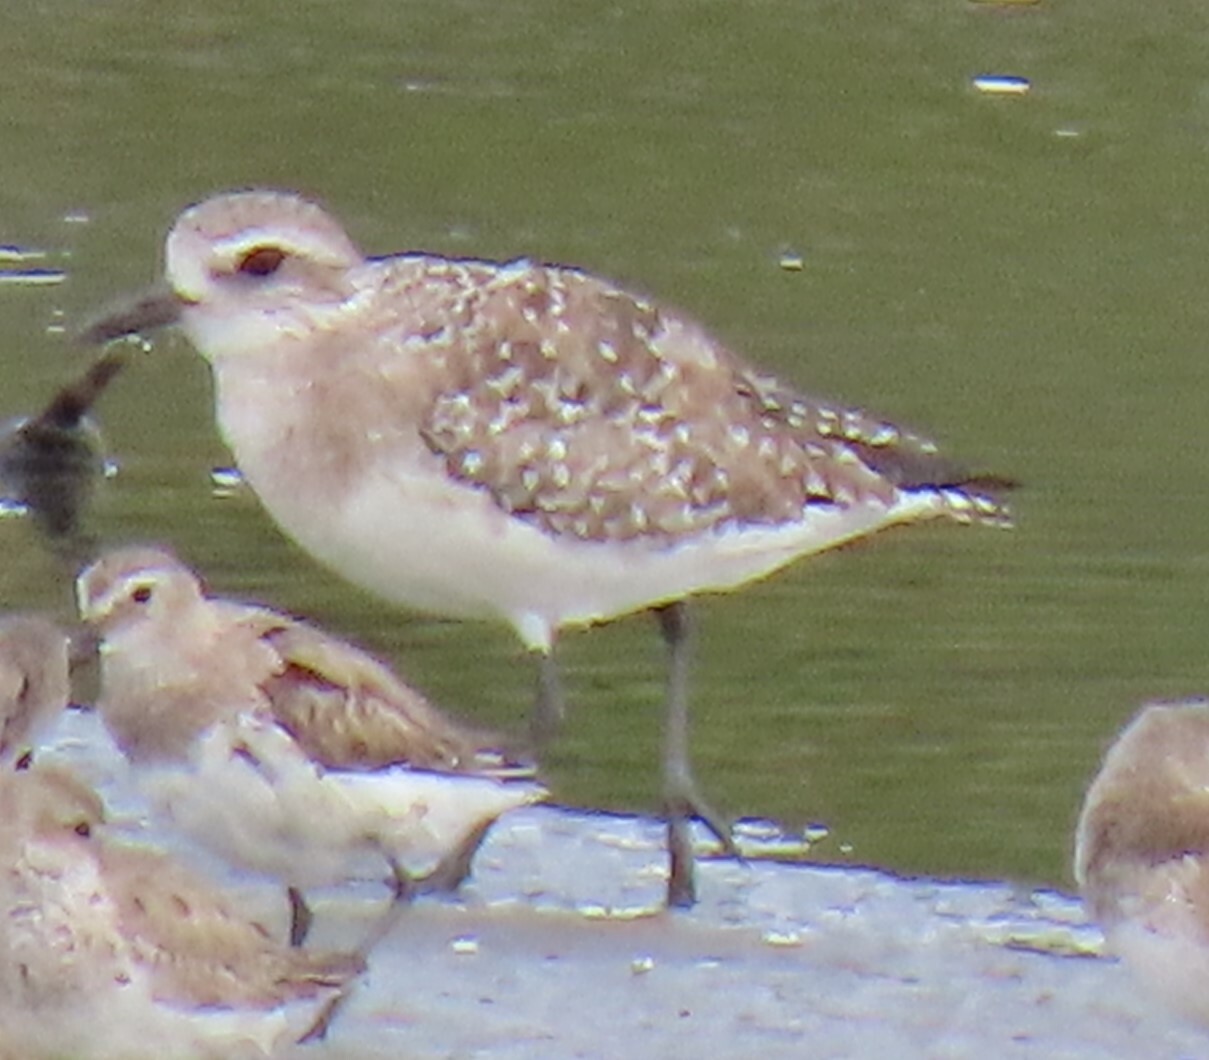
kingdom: Animalia
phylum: Chordata
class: Aves
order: Charadriiformes
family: Charadriidae
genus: Pluvialis
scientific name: Pluvialis squatarola
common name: Grey plover
